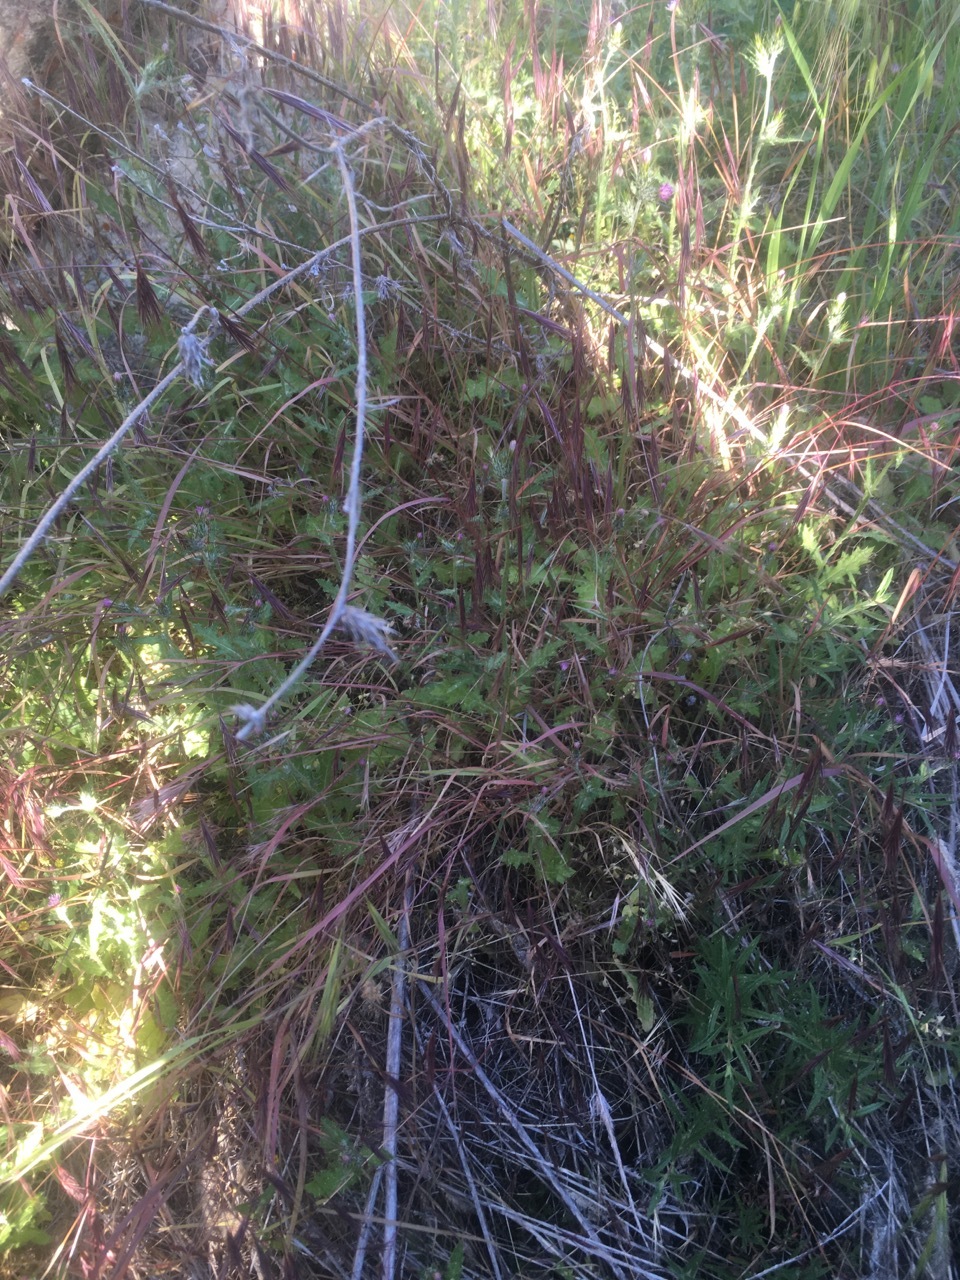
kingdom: Plantae
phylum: Tracheophyta
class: Magnoliopsida
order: Asterales
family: Asteraceae
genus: Carduus
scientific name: Carduus pycnocephalus
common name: Plymouth thistle
